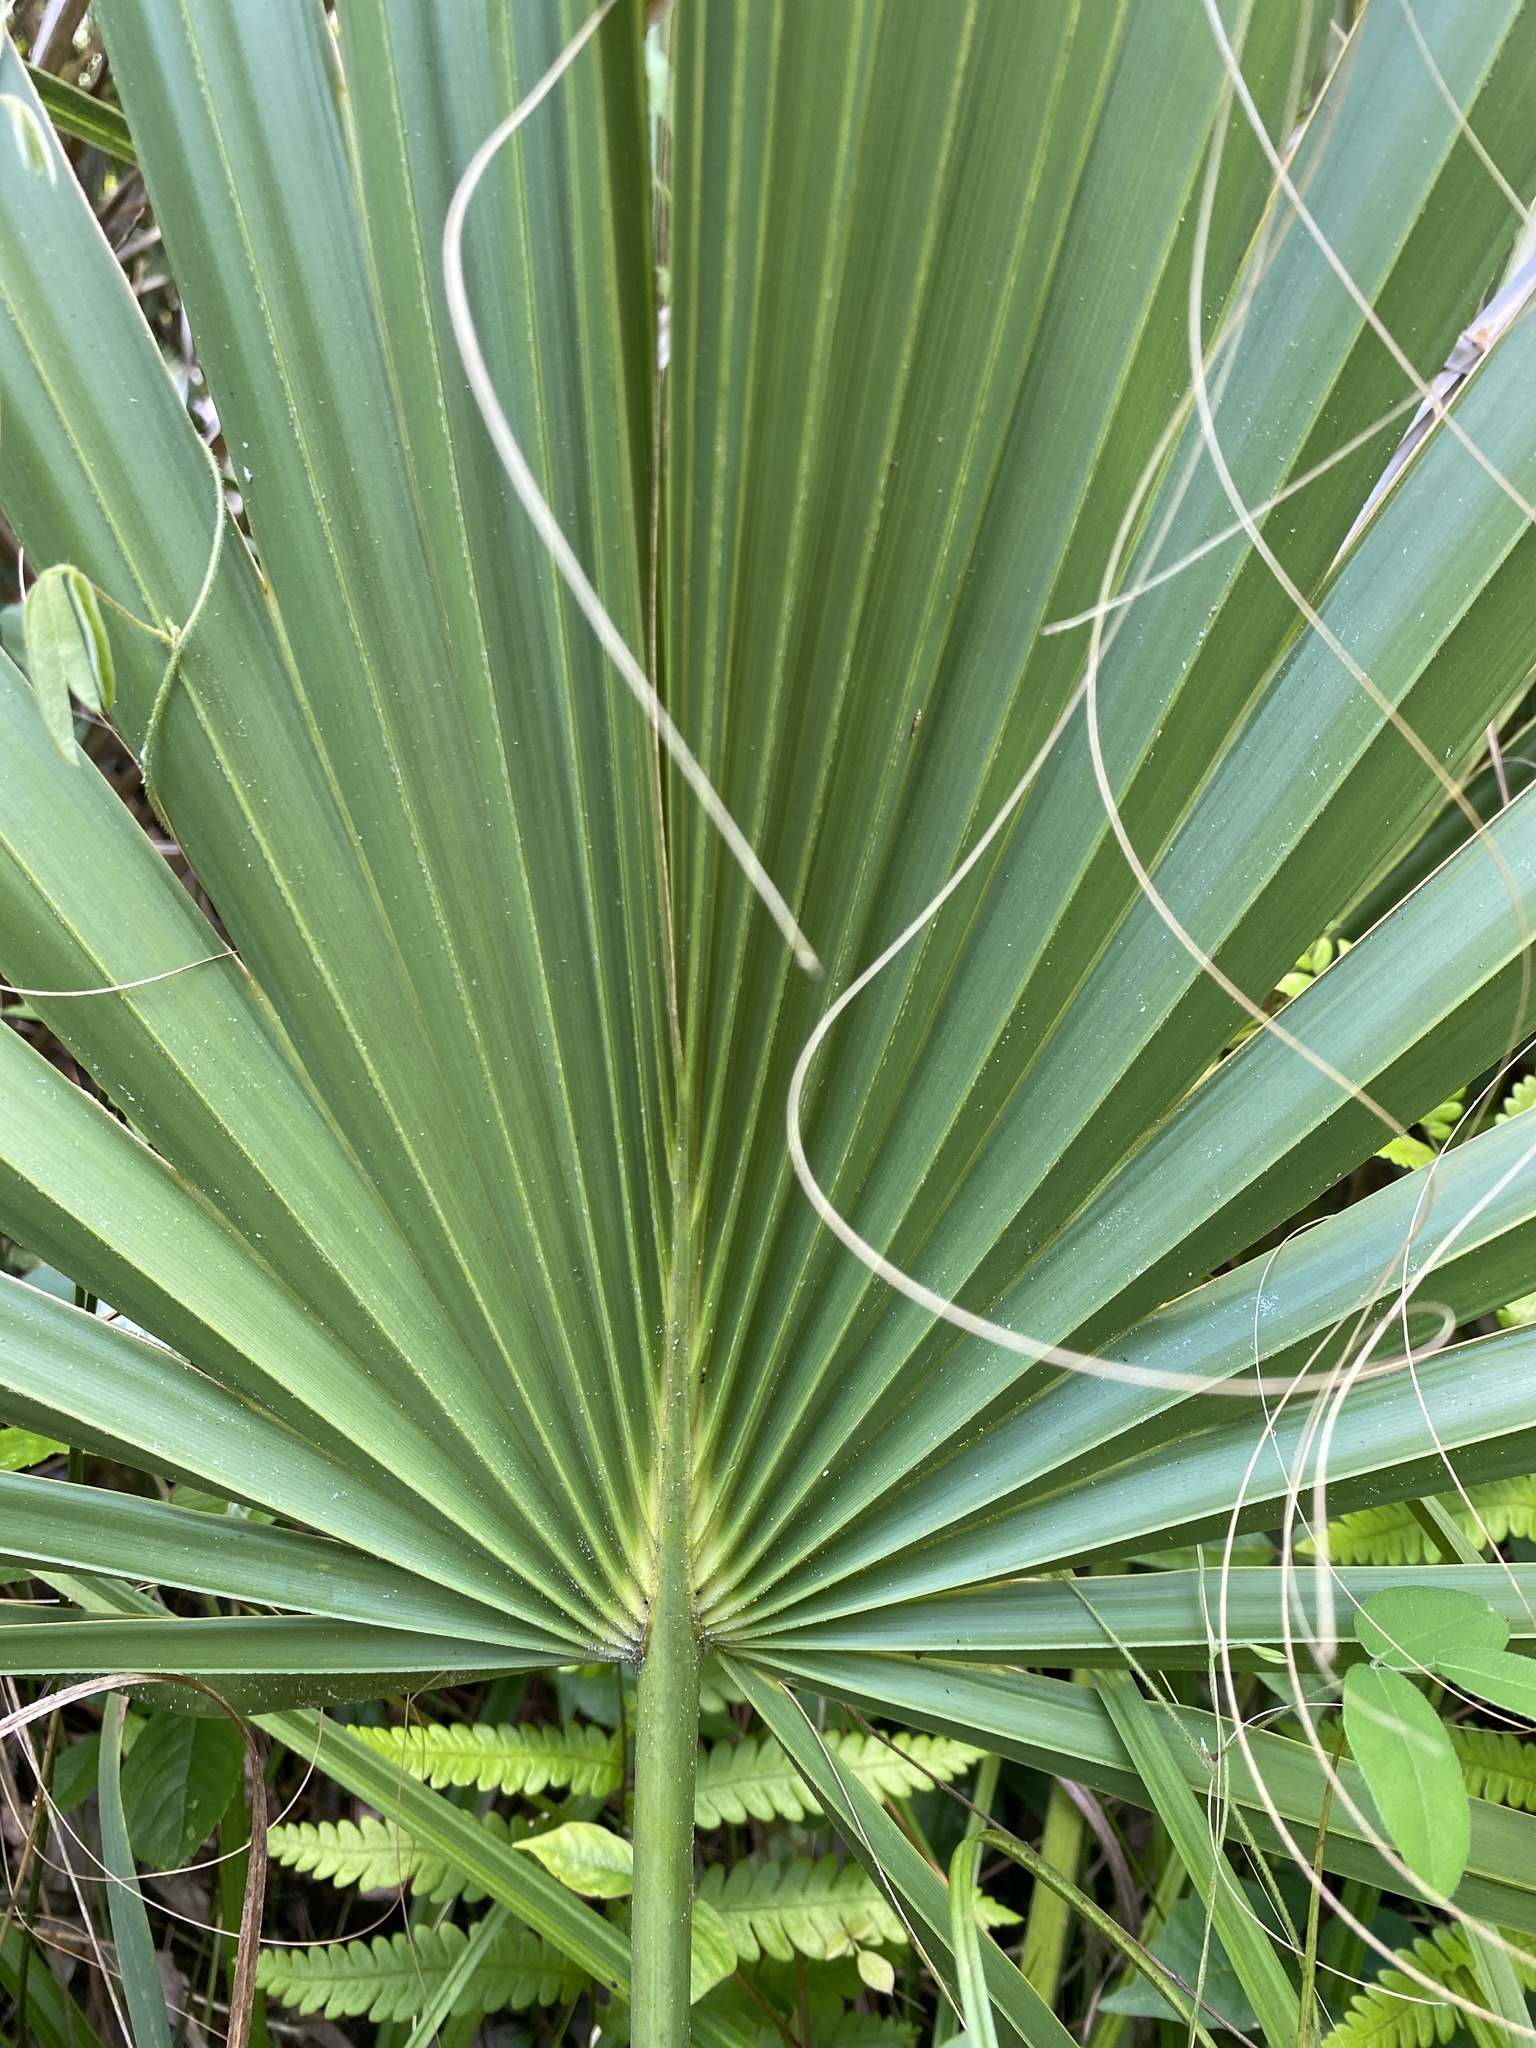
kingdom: Plantae
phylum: Tracheophyta
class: Liliopsida
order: Arecales
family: Arecaceae
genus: Sabal
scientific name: Sabal palmetto
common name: Blue palmetto
